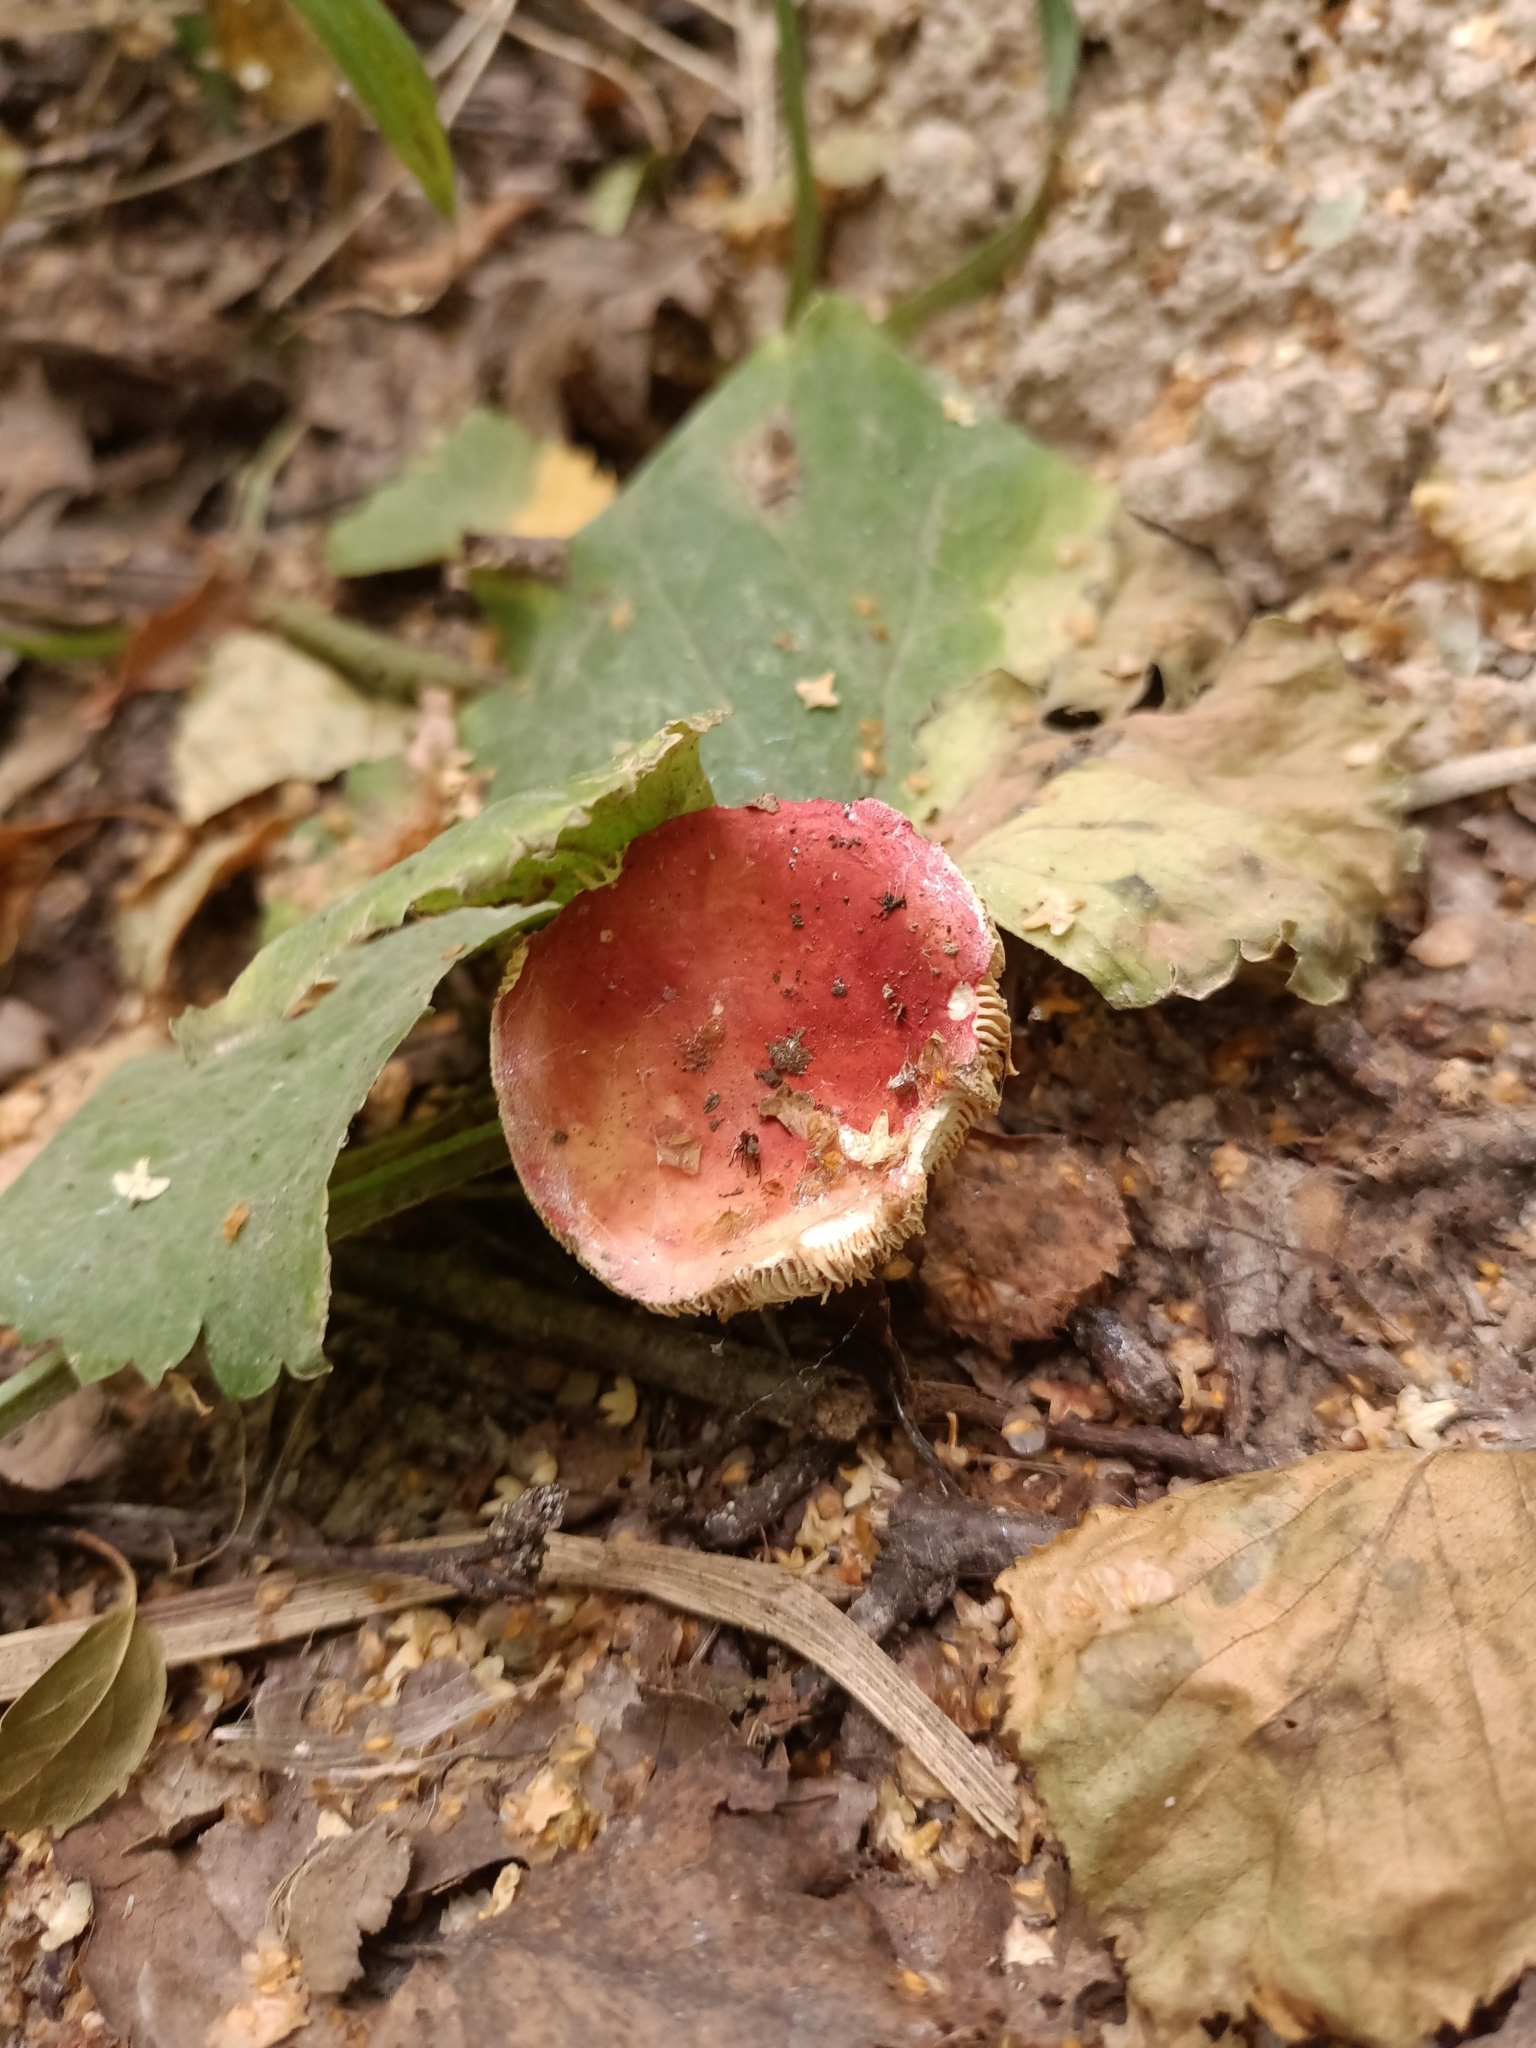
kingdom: Fungi
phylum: Basidiomycota
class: Agaricomycetes
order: Russulales
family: Russulaceae
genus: Russula
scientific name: Russula vesca
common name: Bare-toothed russula
